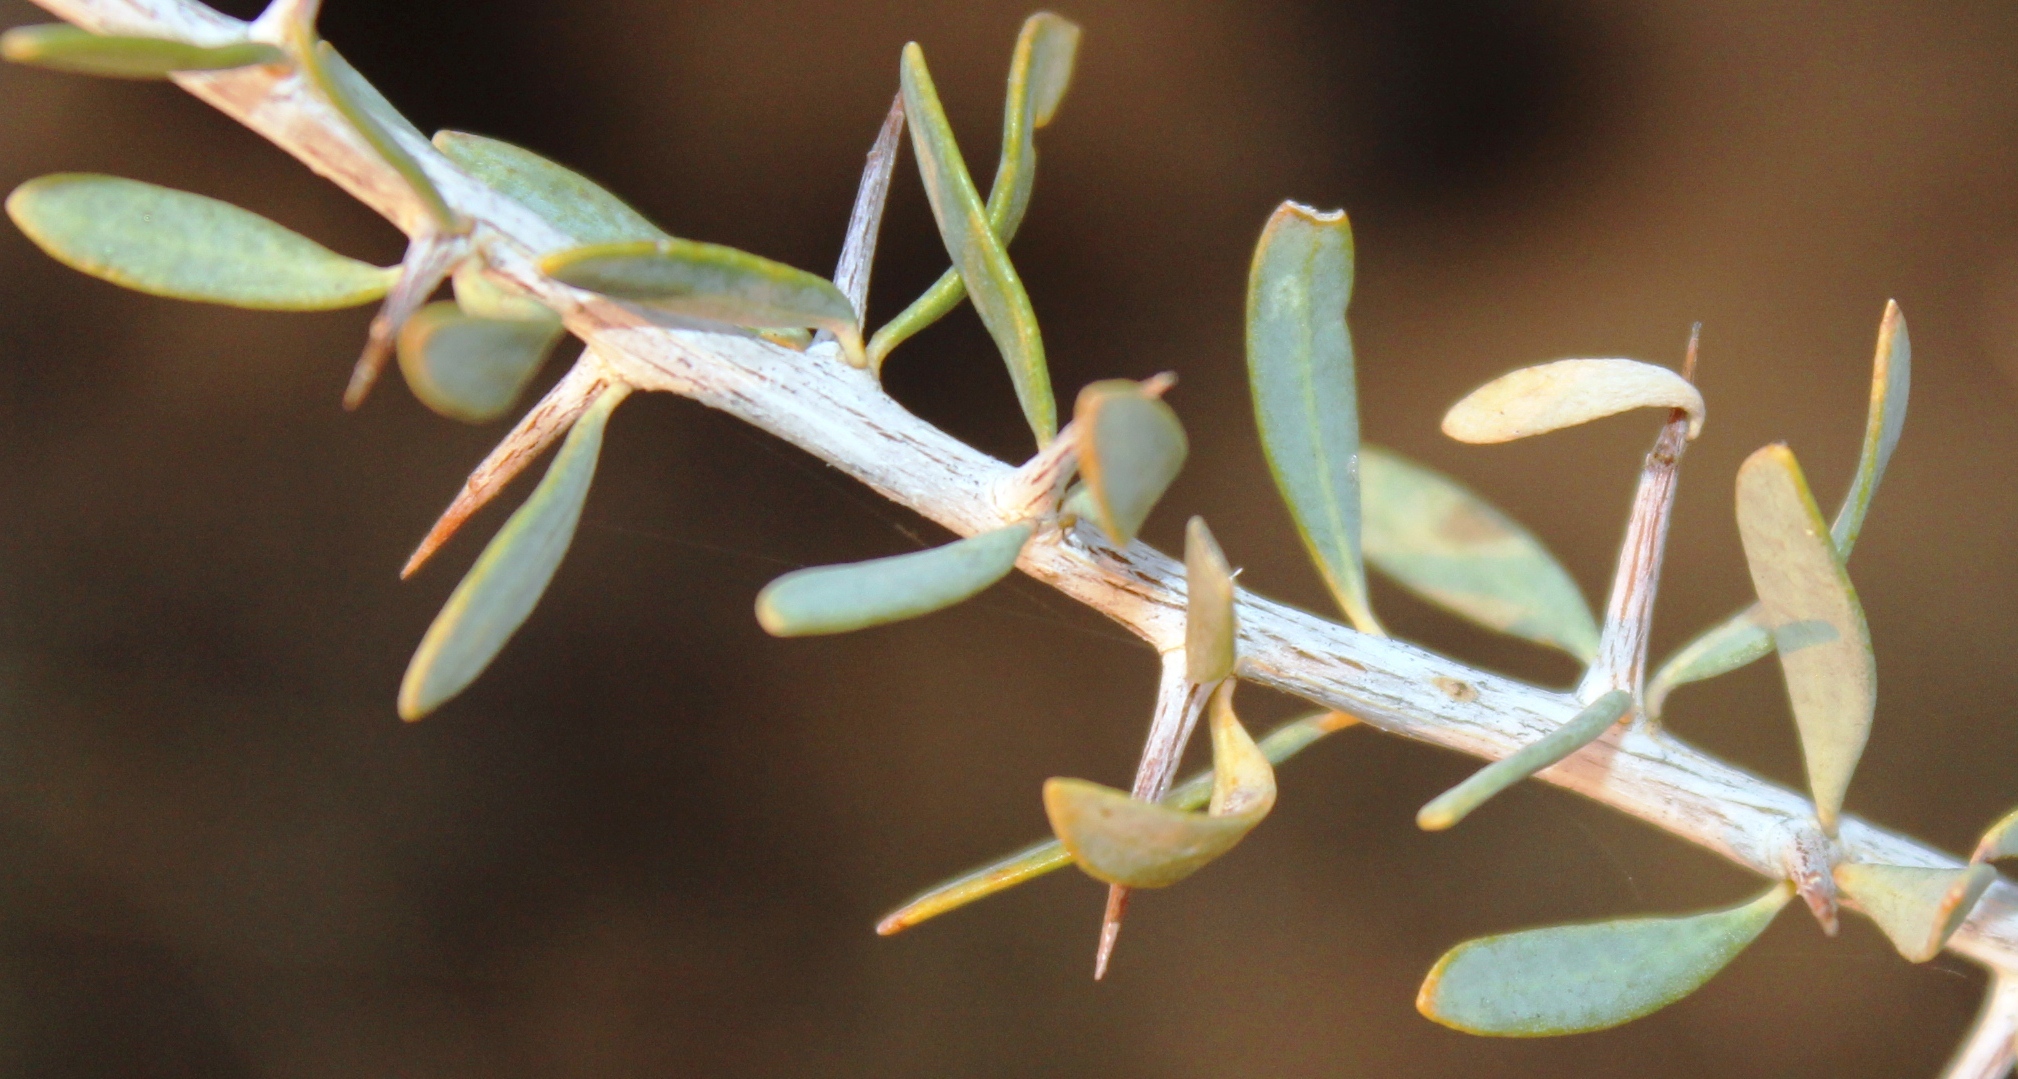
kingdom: Plantae
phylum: Tracheophyta
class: Magnoliopsida
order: Solanales
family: Solanaceae
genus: Lycium
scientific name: Lycium bosciifolium
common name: Limpopo honey-thorn
